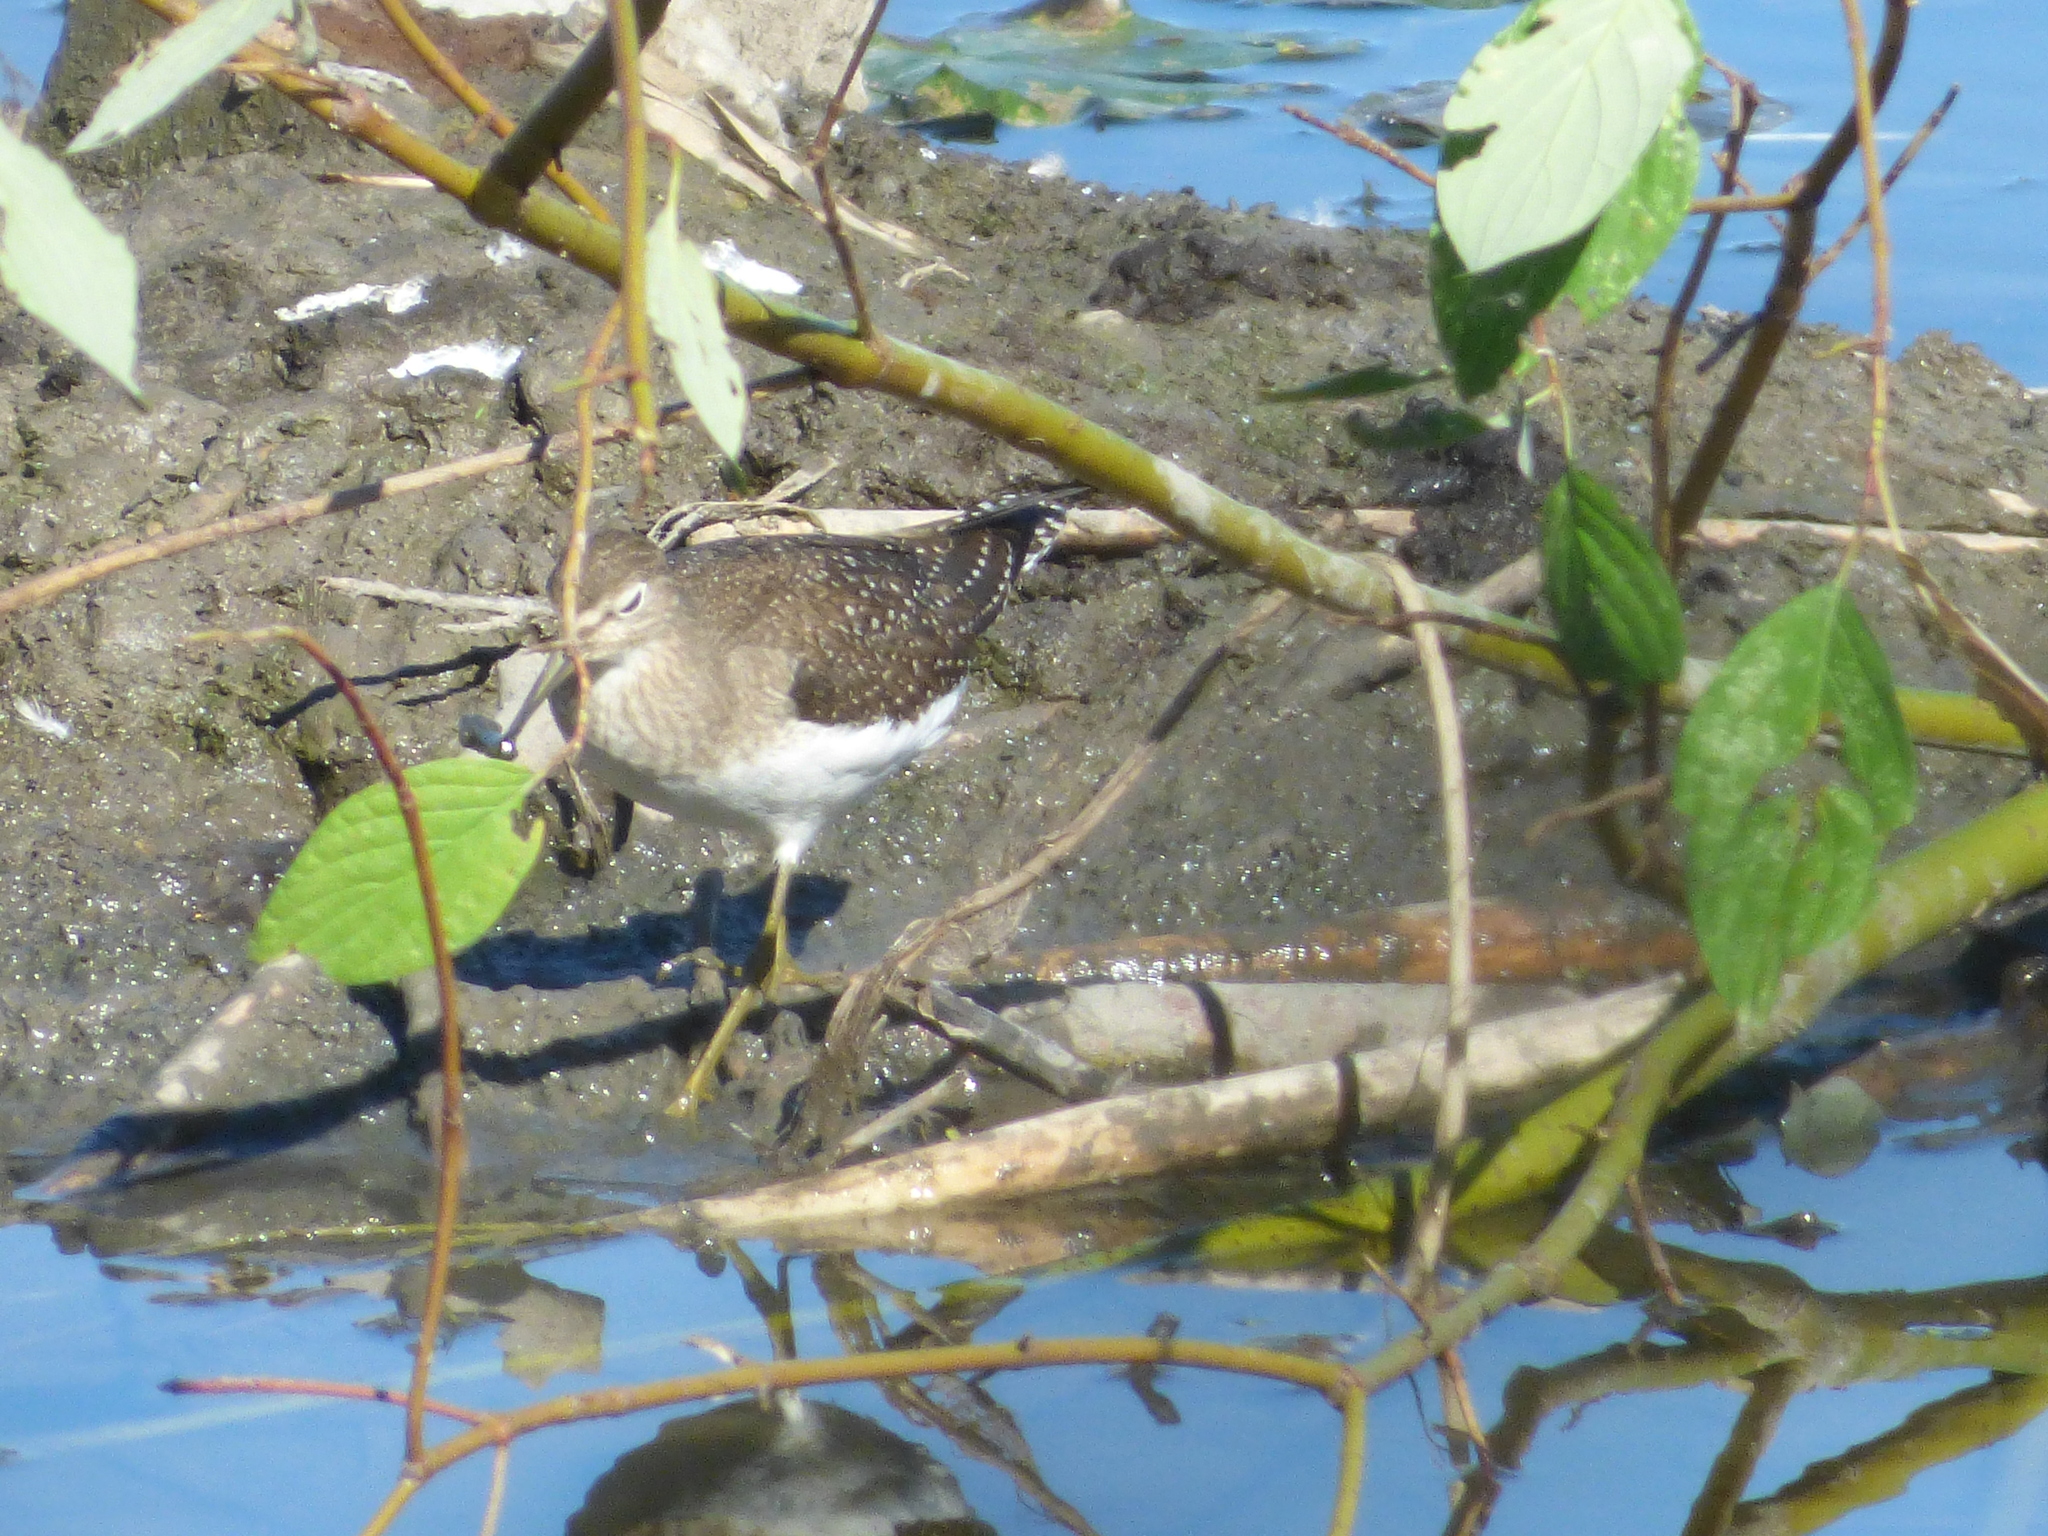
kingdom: Animalia
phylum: Chordata
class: Aves
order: Charadriiformes
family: Scolopacidae
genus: Tringa
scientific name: Tringa solitaria
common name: Solitary sandpiper
